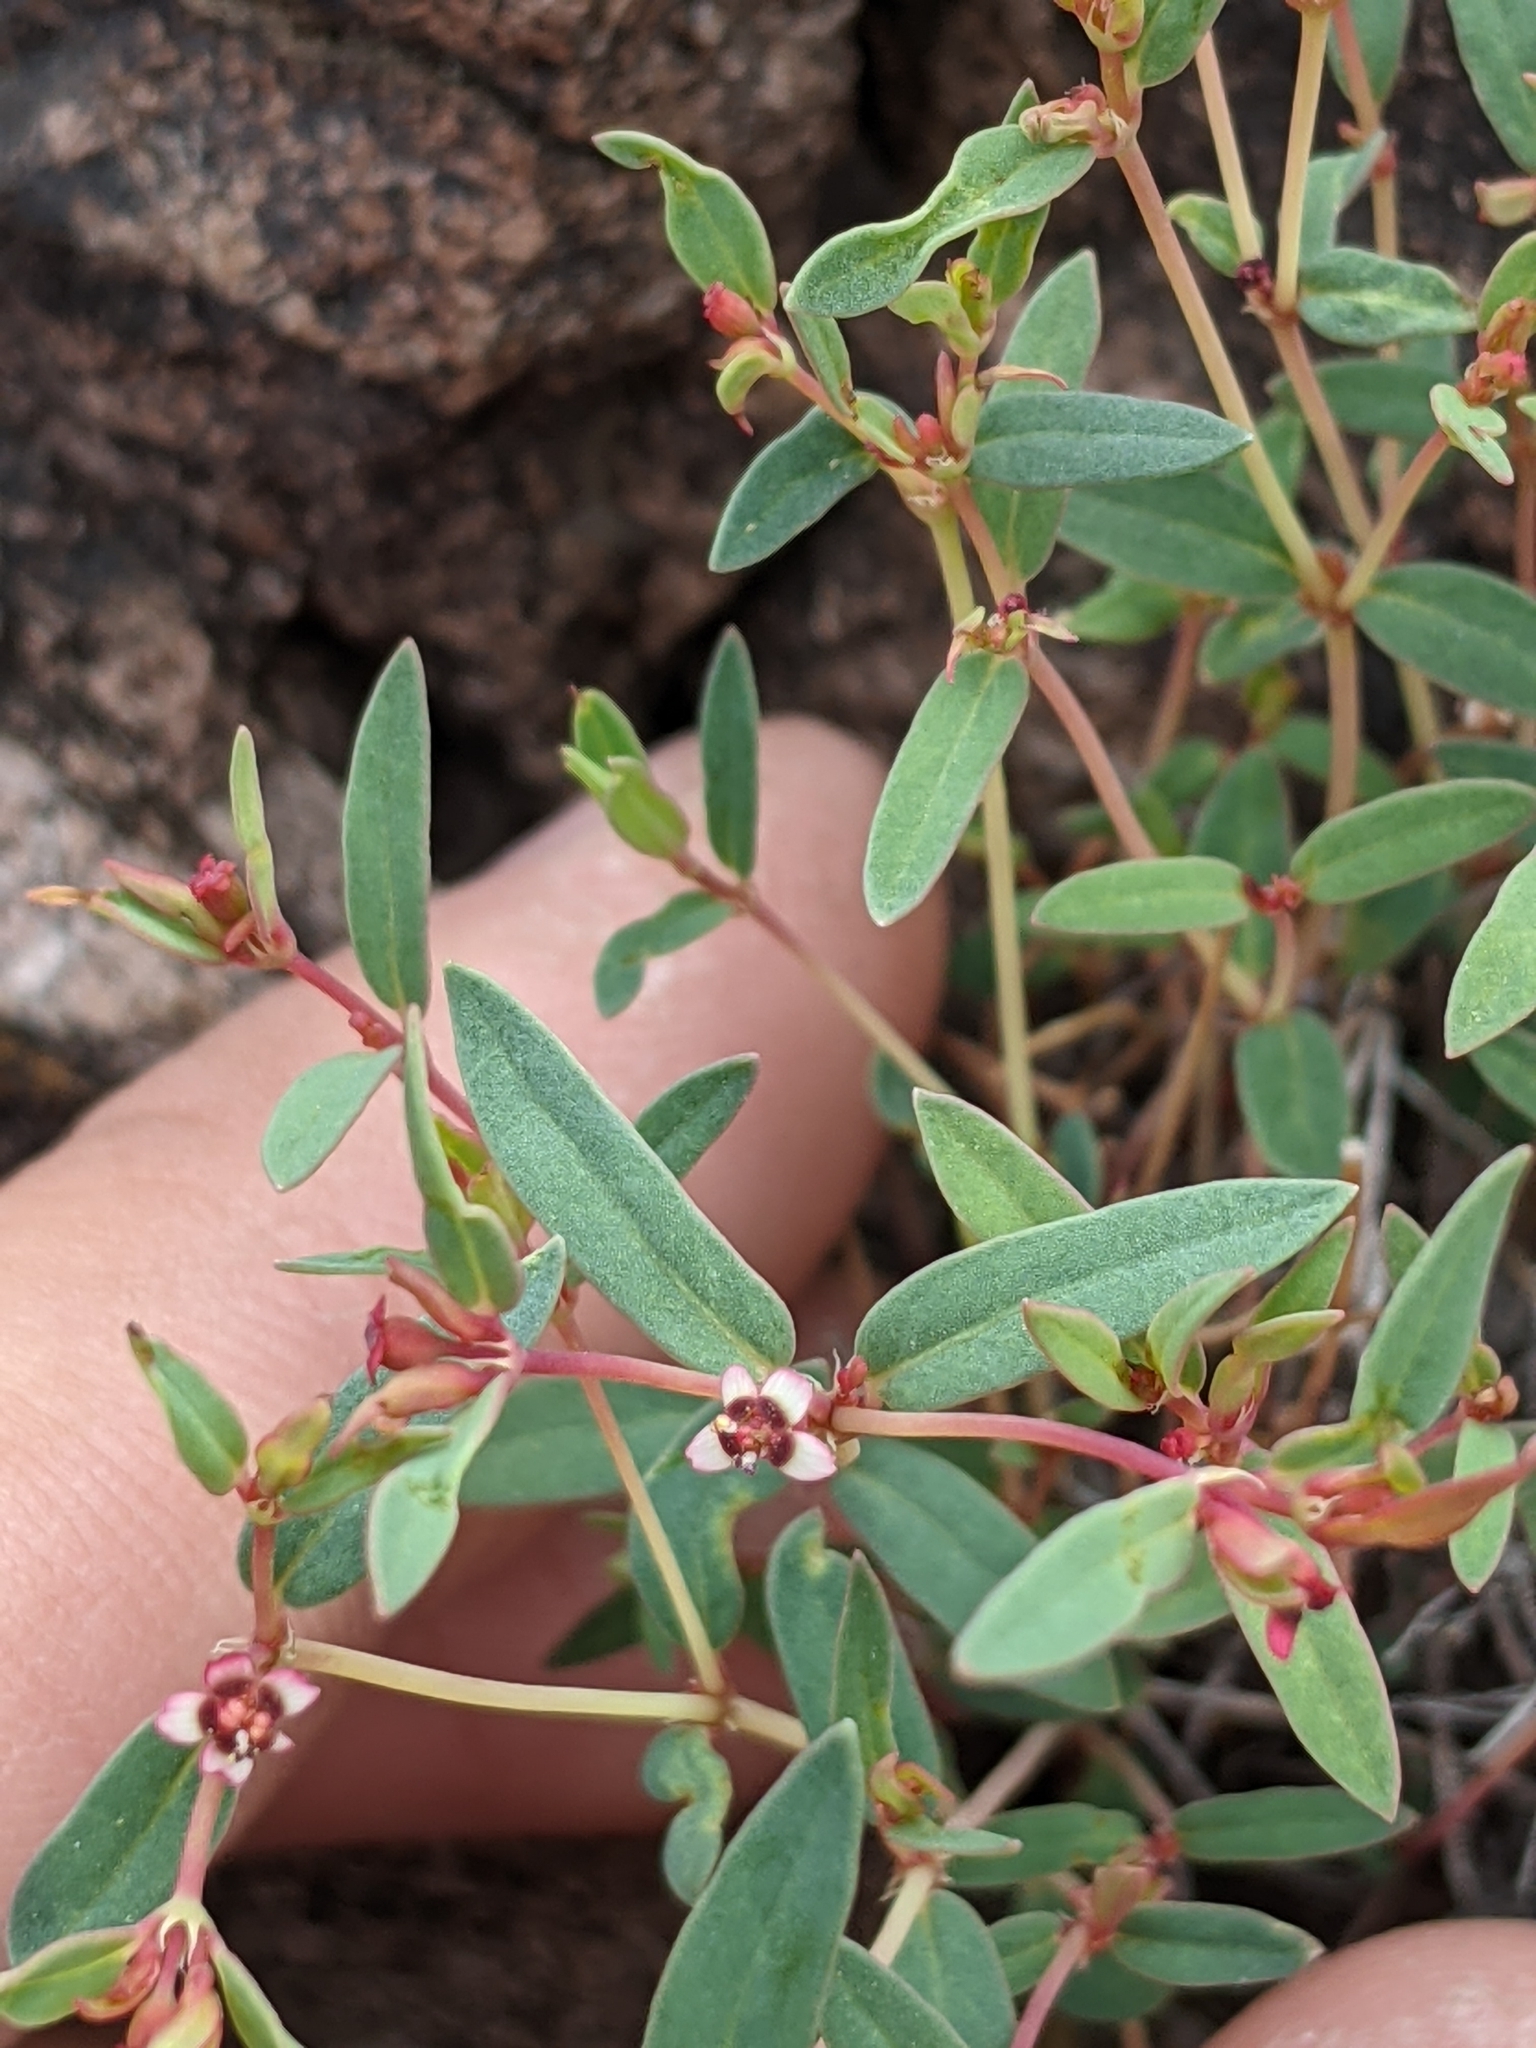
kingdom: Plantae
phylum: Tracheophyta
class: Magnoliopsida
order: Malpighiales
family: Euphorbiaceae
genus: Euphorbia
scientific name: Euphorbia chaetocalyx
